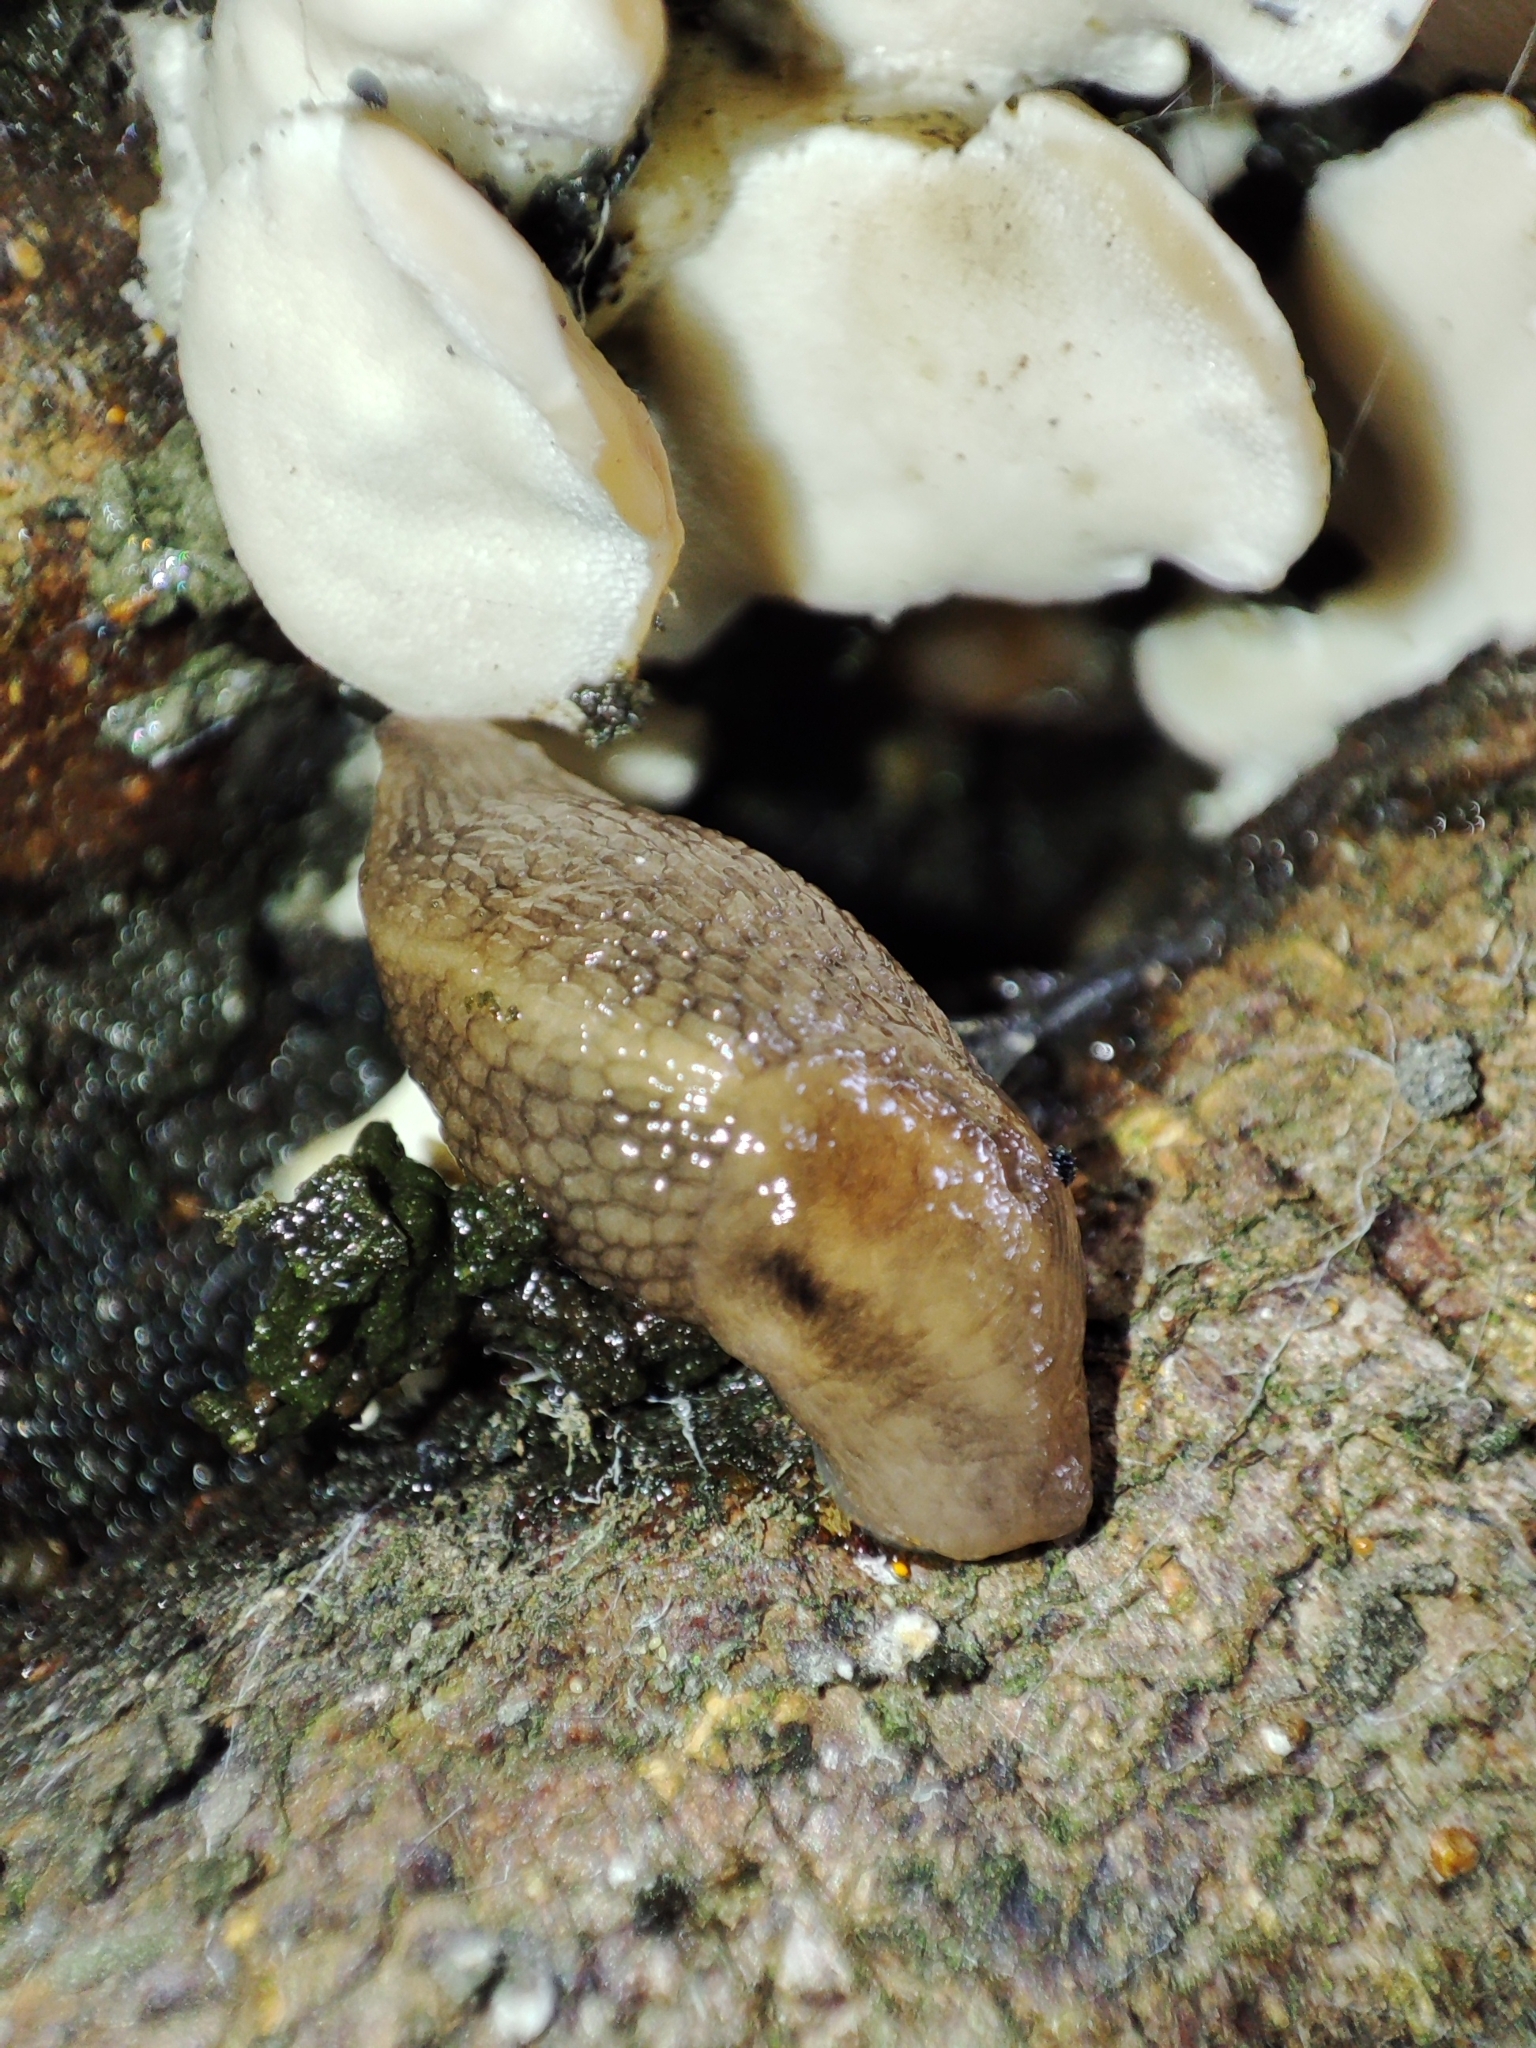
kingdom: Animalia
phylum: Mollusca
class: Gastropoda
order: Stylommatophora
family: Limacidae
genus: Lehmannia
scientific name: Lehmannia marginata
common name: Tree slug
